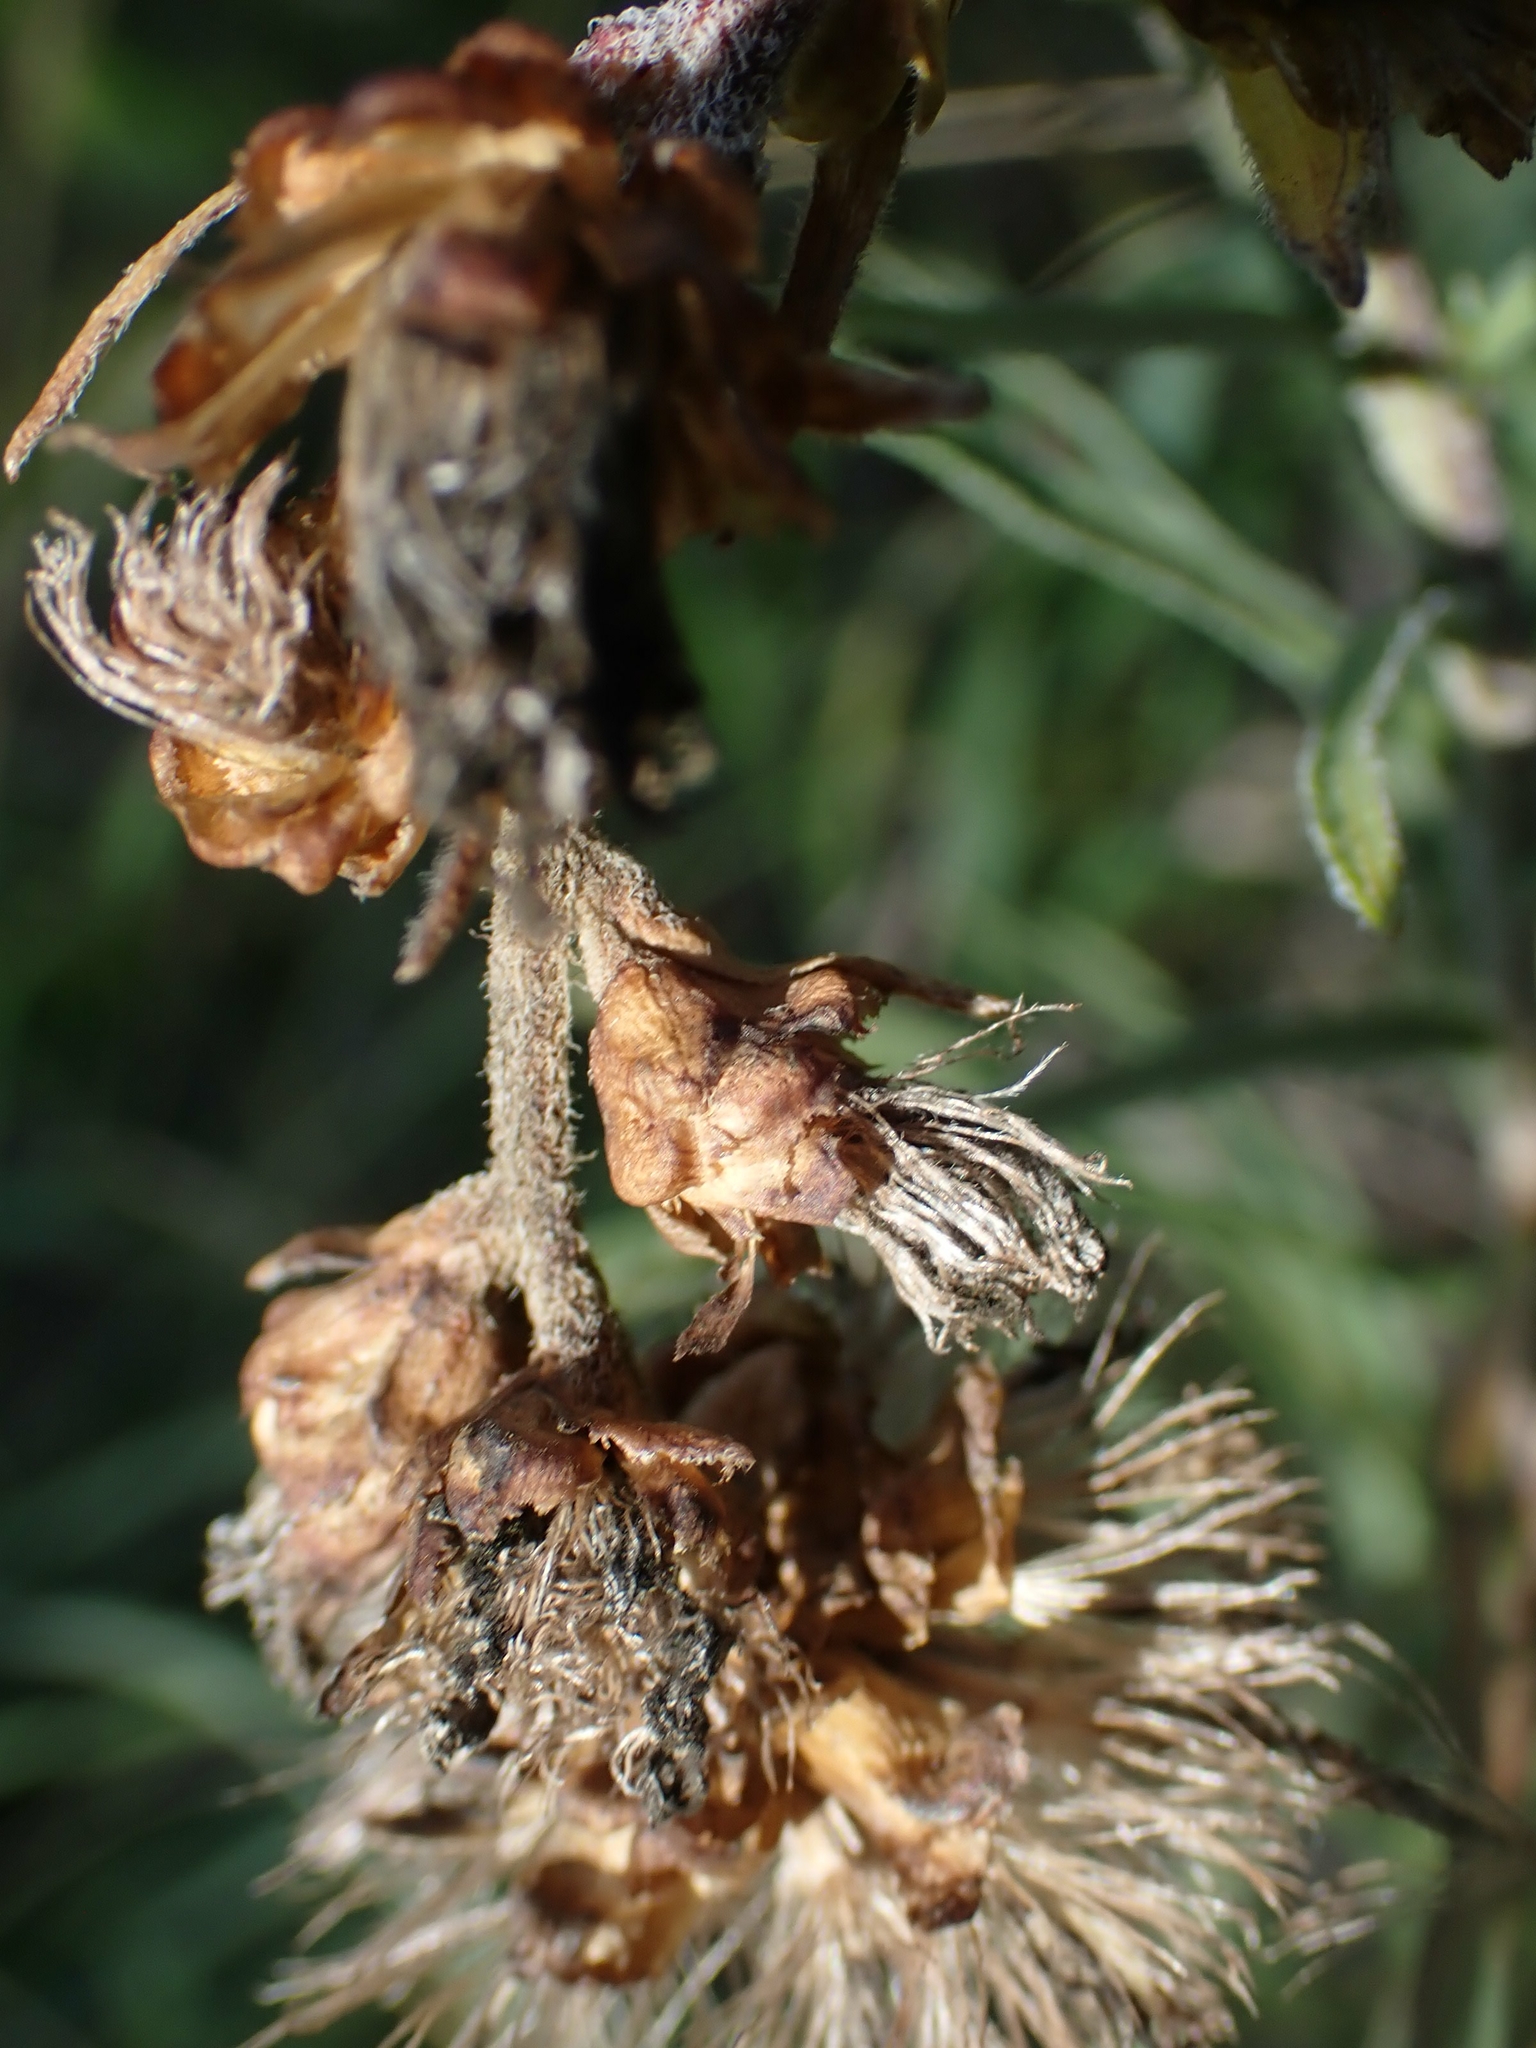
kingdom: Plantae
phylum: Tracheophyta
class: Magnoliopsida
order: Asterales
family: Asteraceae
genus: Liatris
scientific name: Liatris ligulistylis
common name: Northern plains gayfeather
